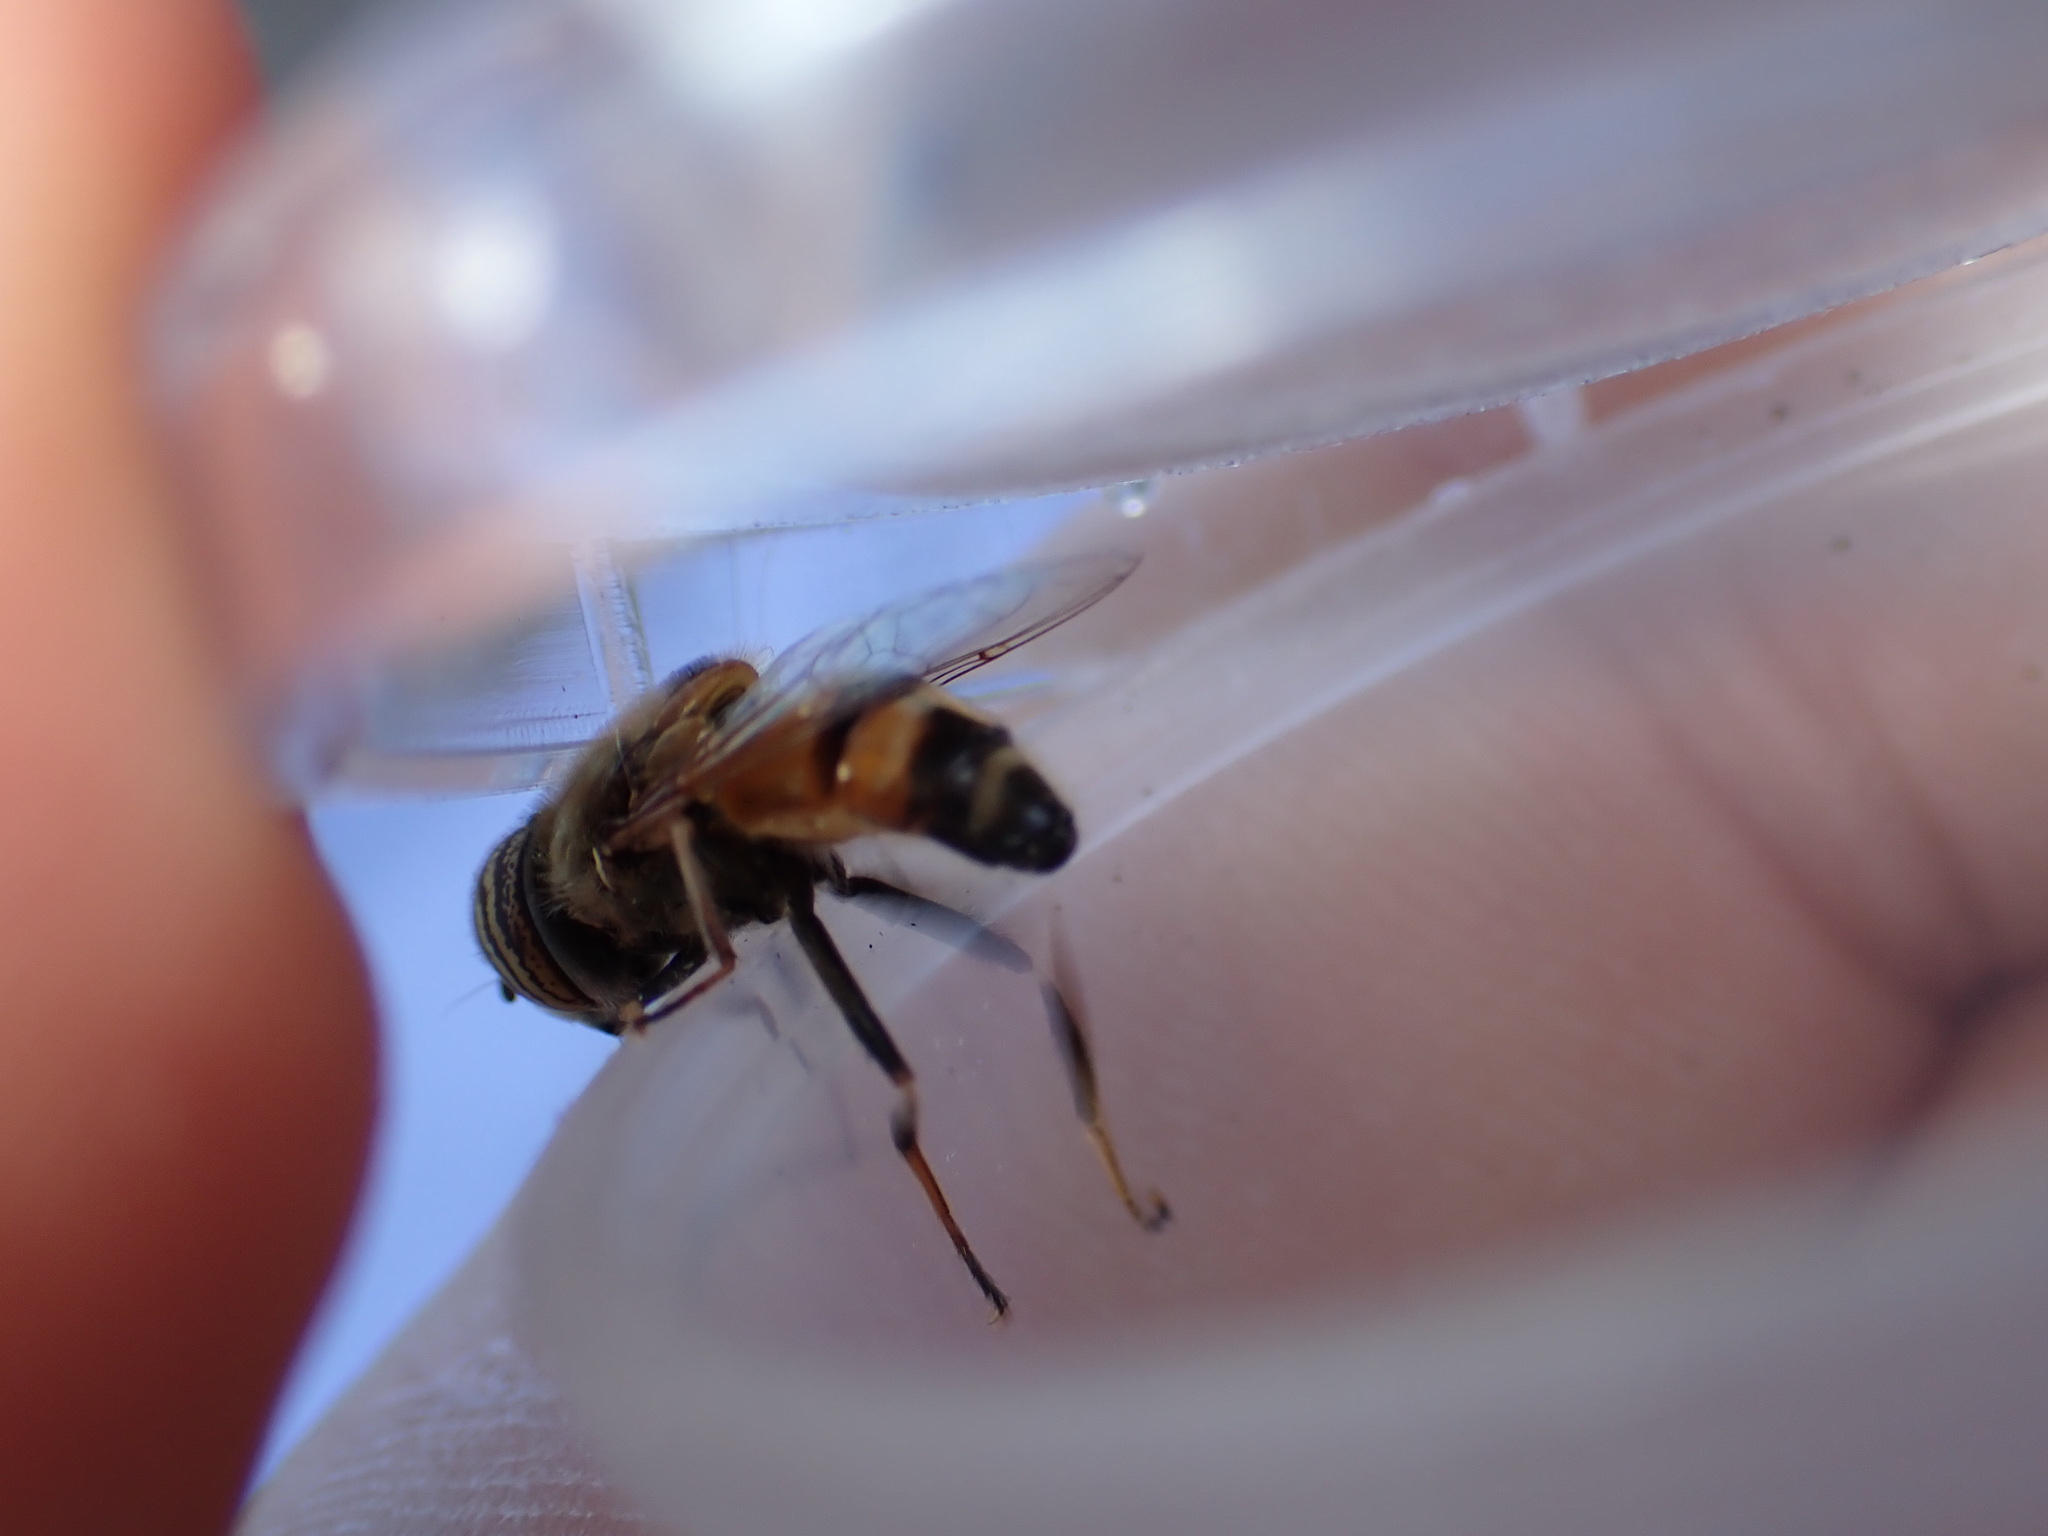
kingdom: Animalia
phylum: Arthropoda
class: Insecta
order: Diptera
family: Syrphidae
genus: Eristalinus
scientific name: Eristalinus taeniops
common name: Syrphid fly
